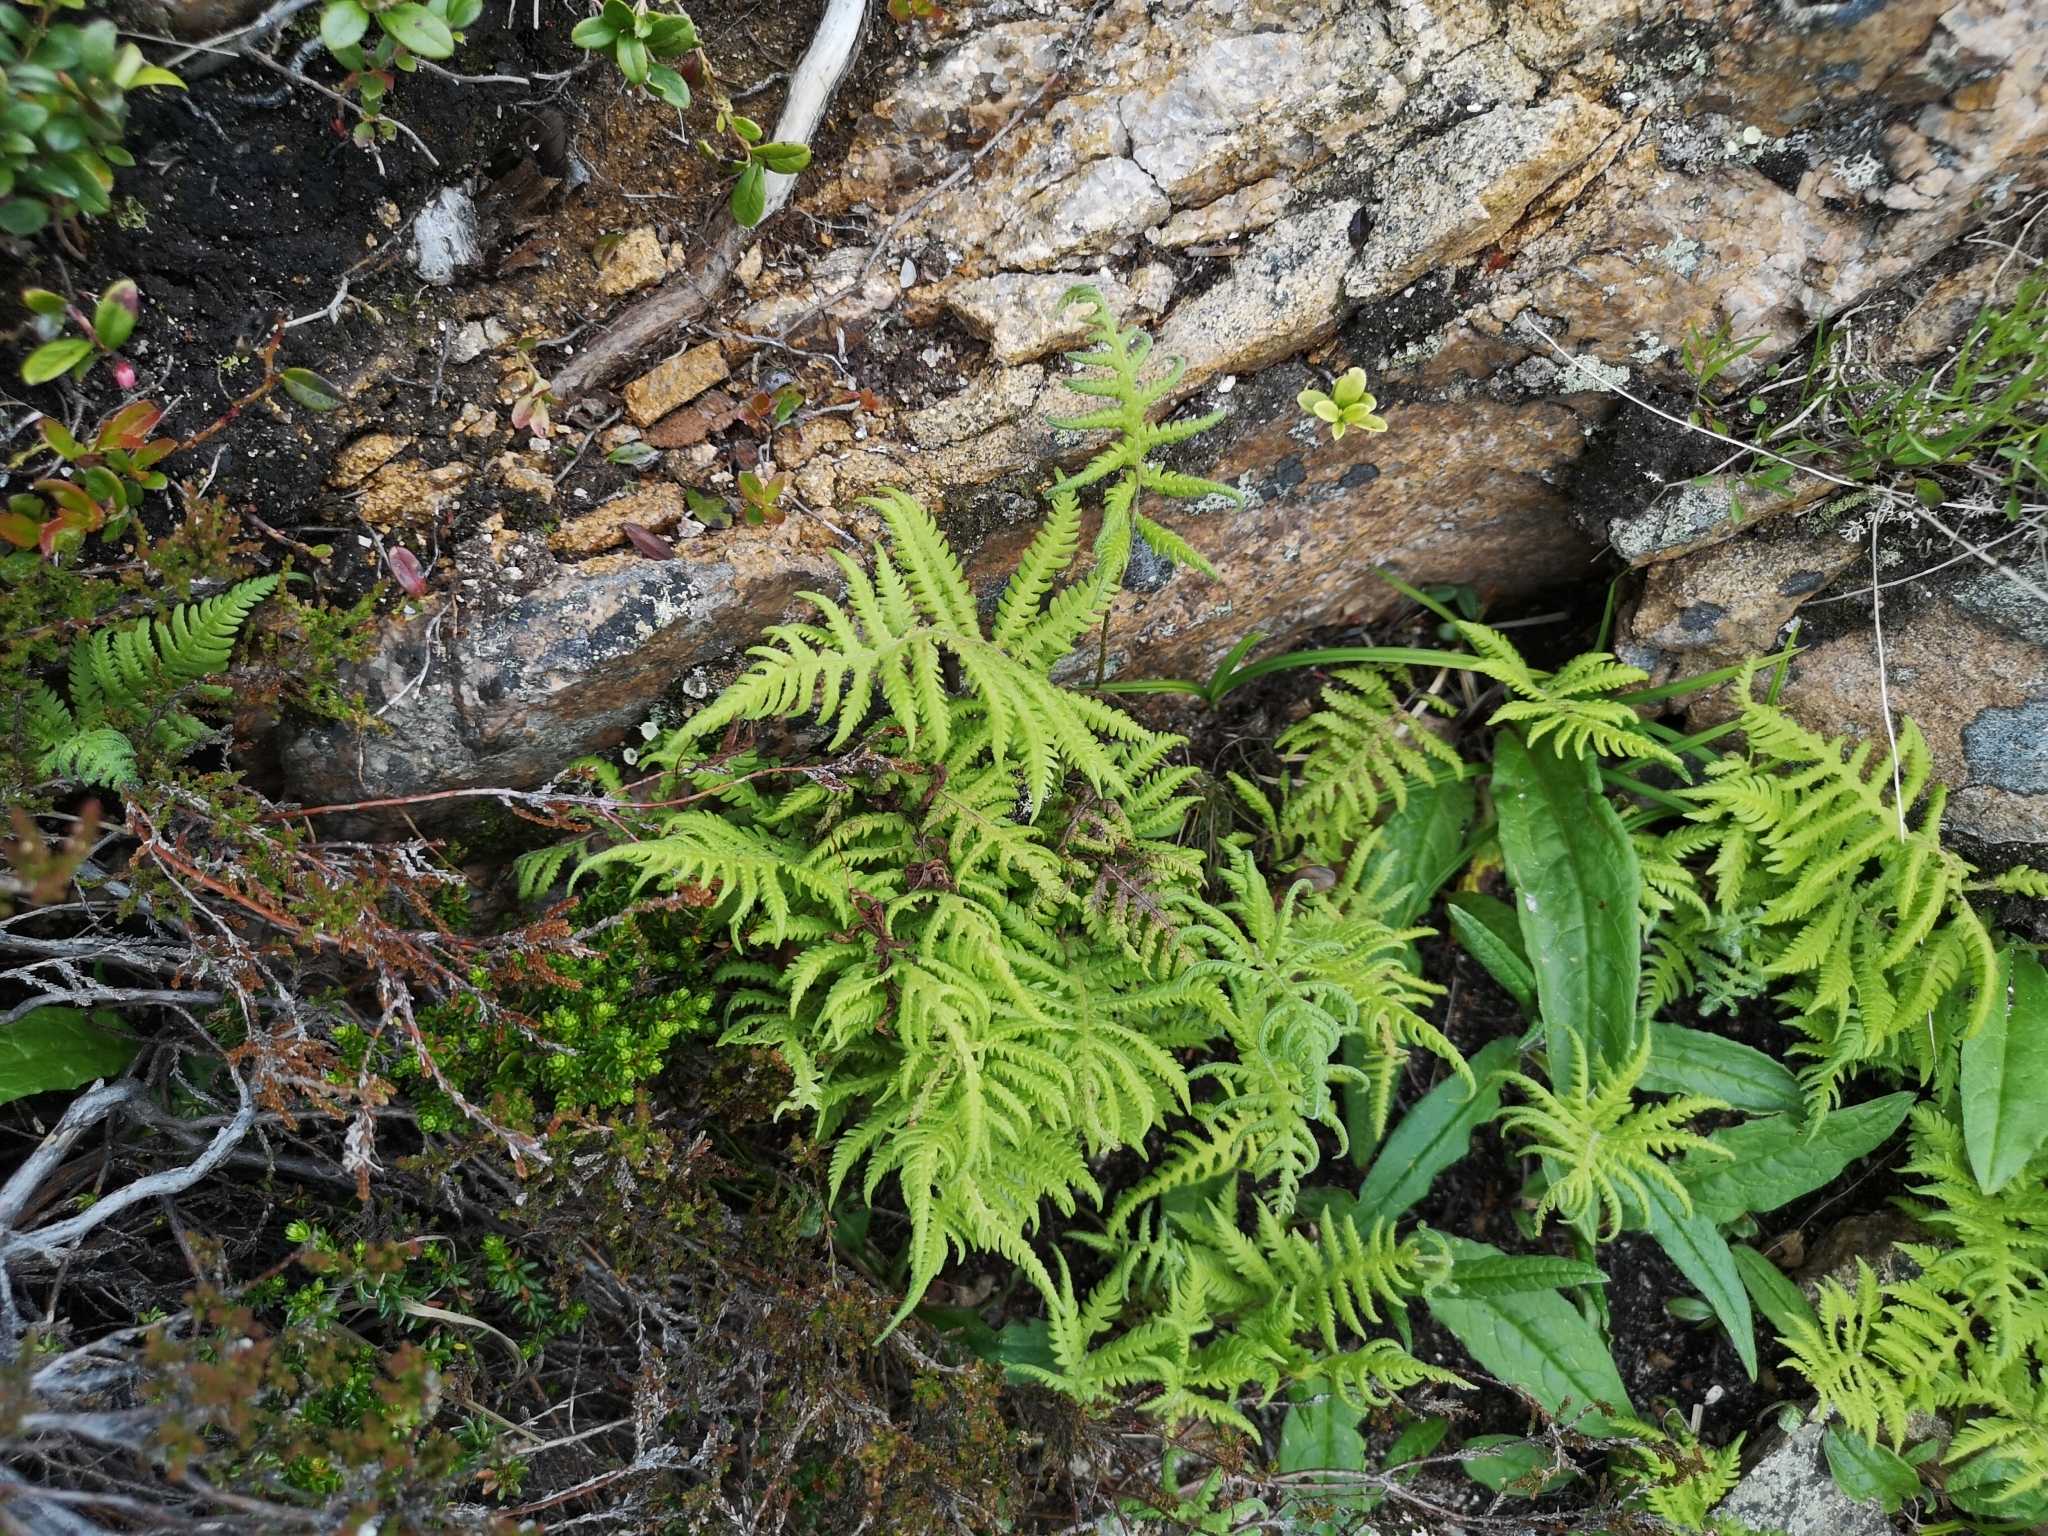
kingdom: Plantae
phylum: Tracheophyta
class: Polypodiopsida
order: Polypodiales
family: Thelypteridaceae
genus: Phegopteris
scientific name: Phegopteris connectilis
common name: Beech fern
